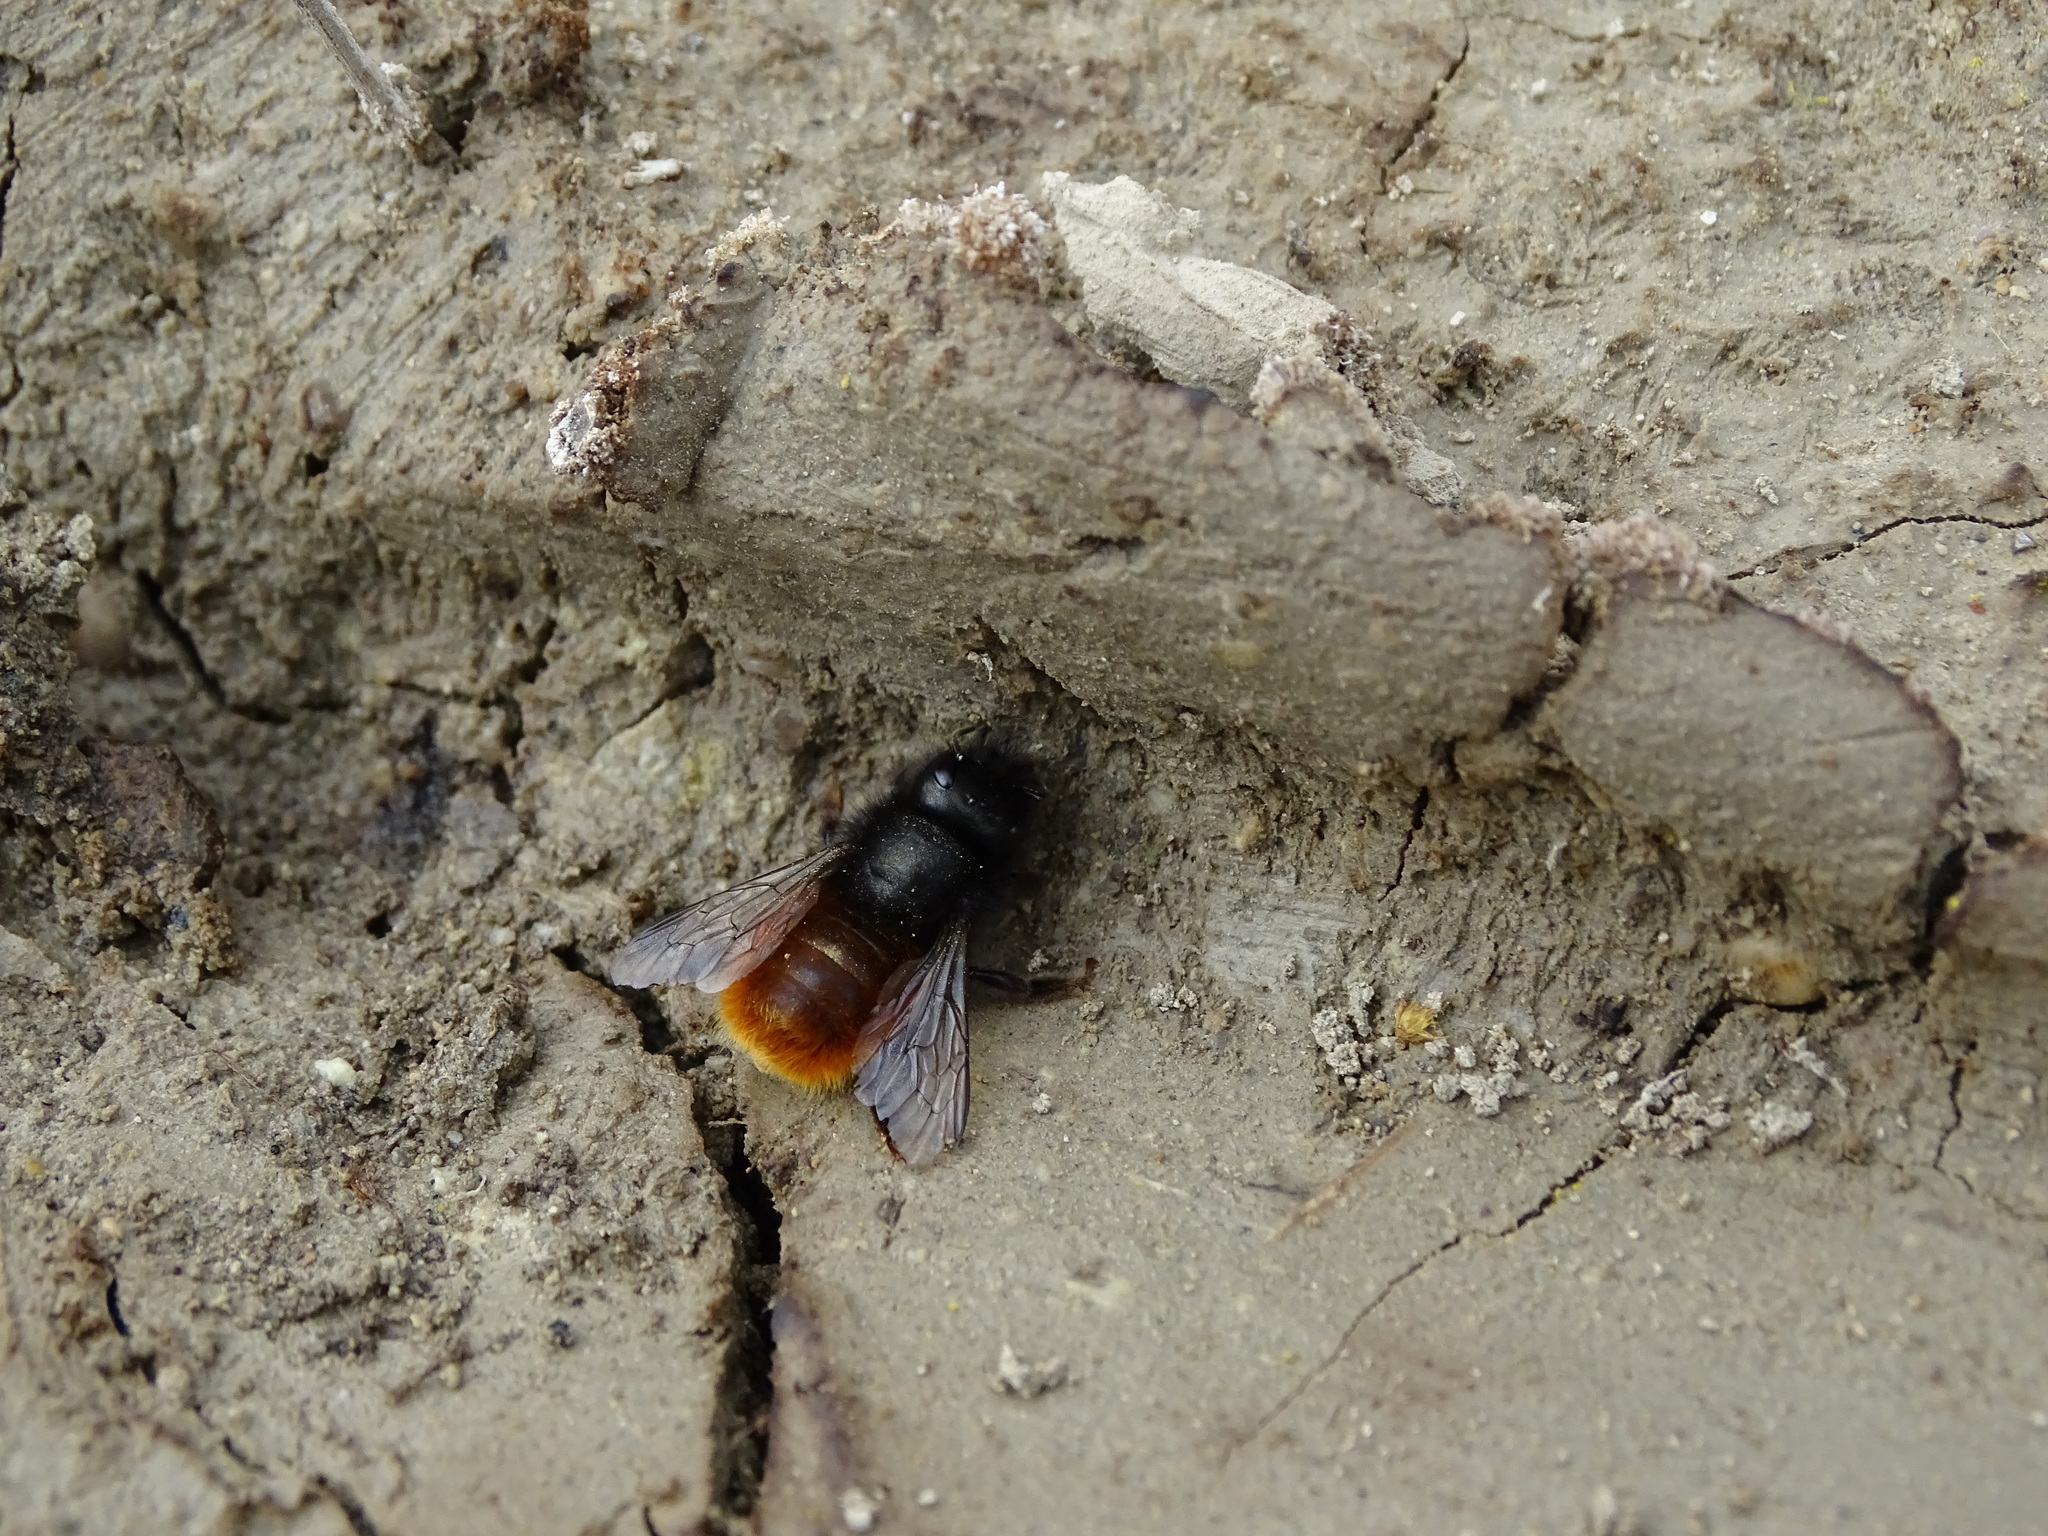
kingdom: Animalia
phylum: Arthropoda
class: Insecta
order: Hymenoptera
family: Megachilidae
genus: Osmia
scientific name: Osmia cornuta
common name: Mason bee
